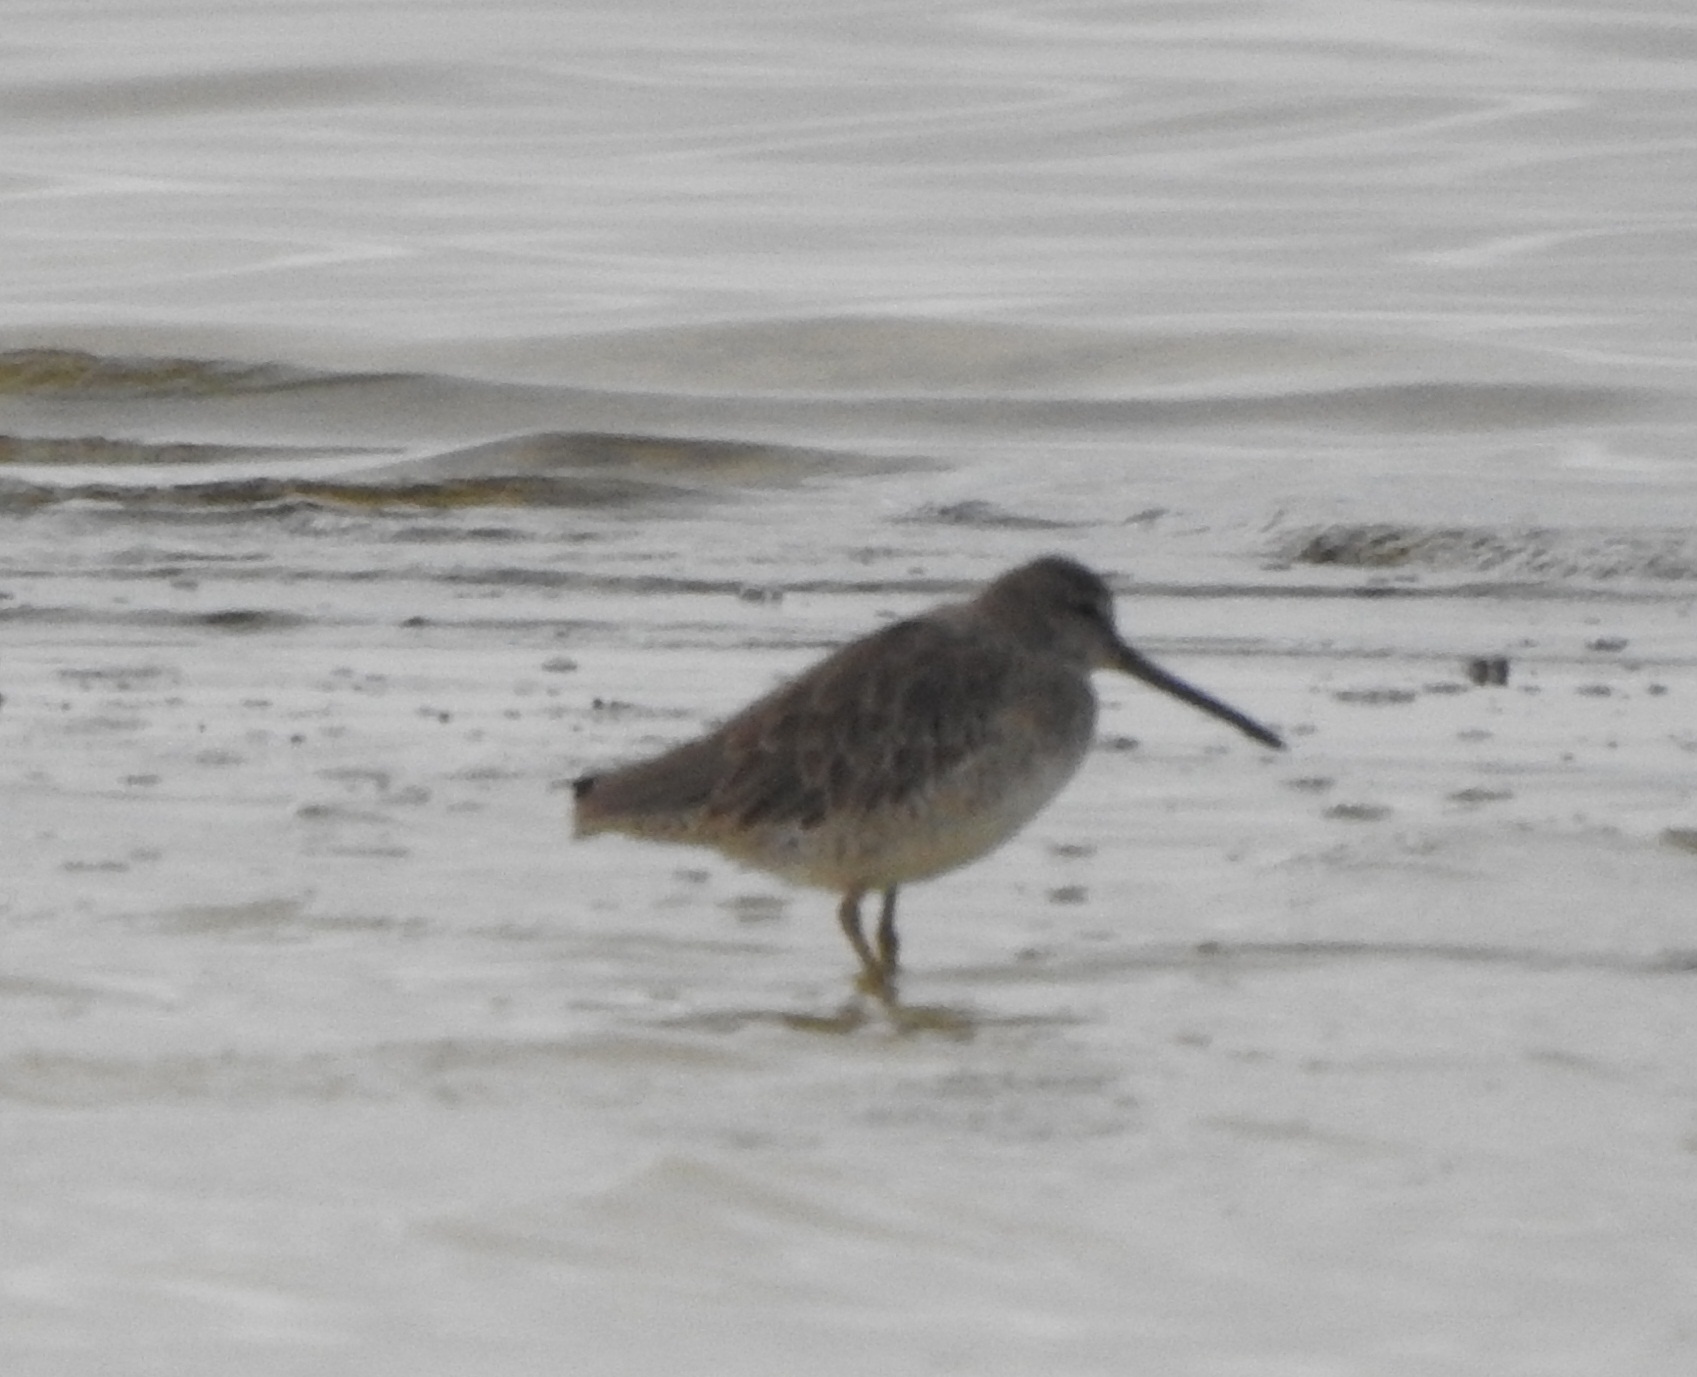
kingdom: Animalia
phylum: Chordata
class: Aves
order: Charadriiformes
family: Scolopacidae
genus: Limnodromus
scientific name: Limnodromus griseus
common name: Short-billed dowitcher
